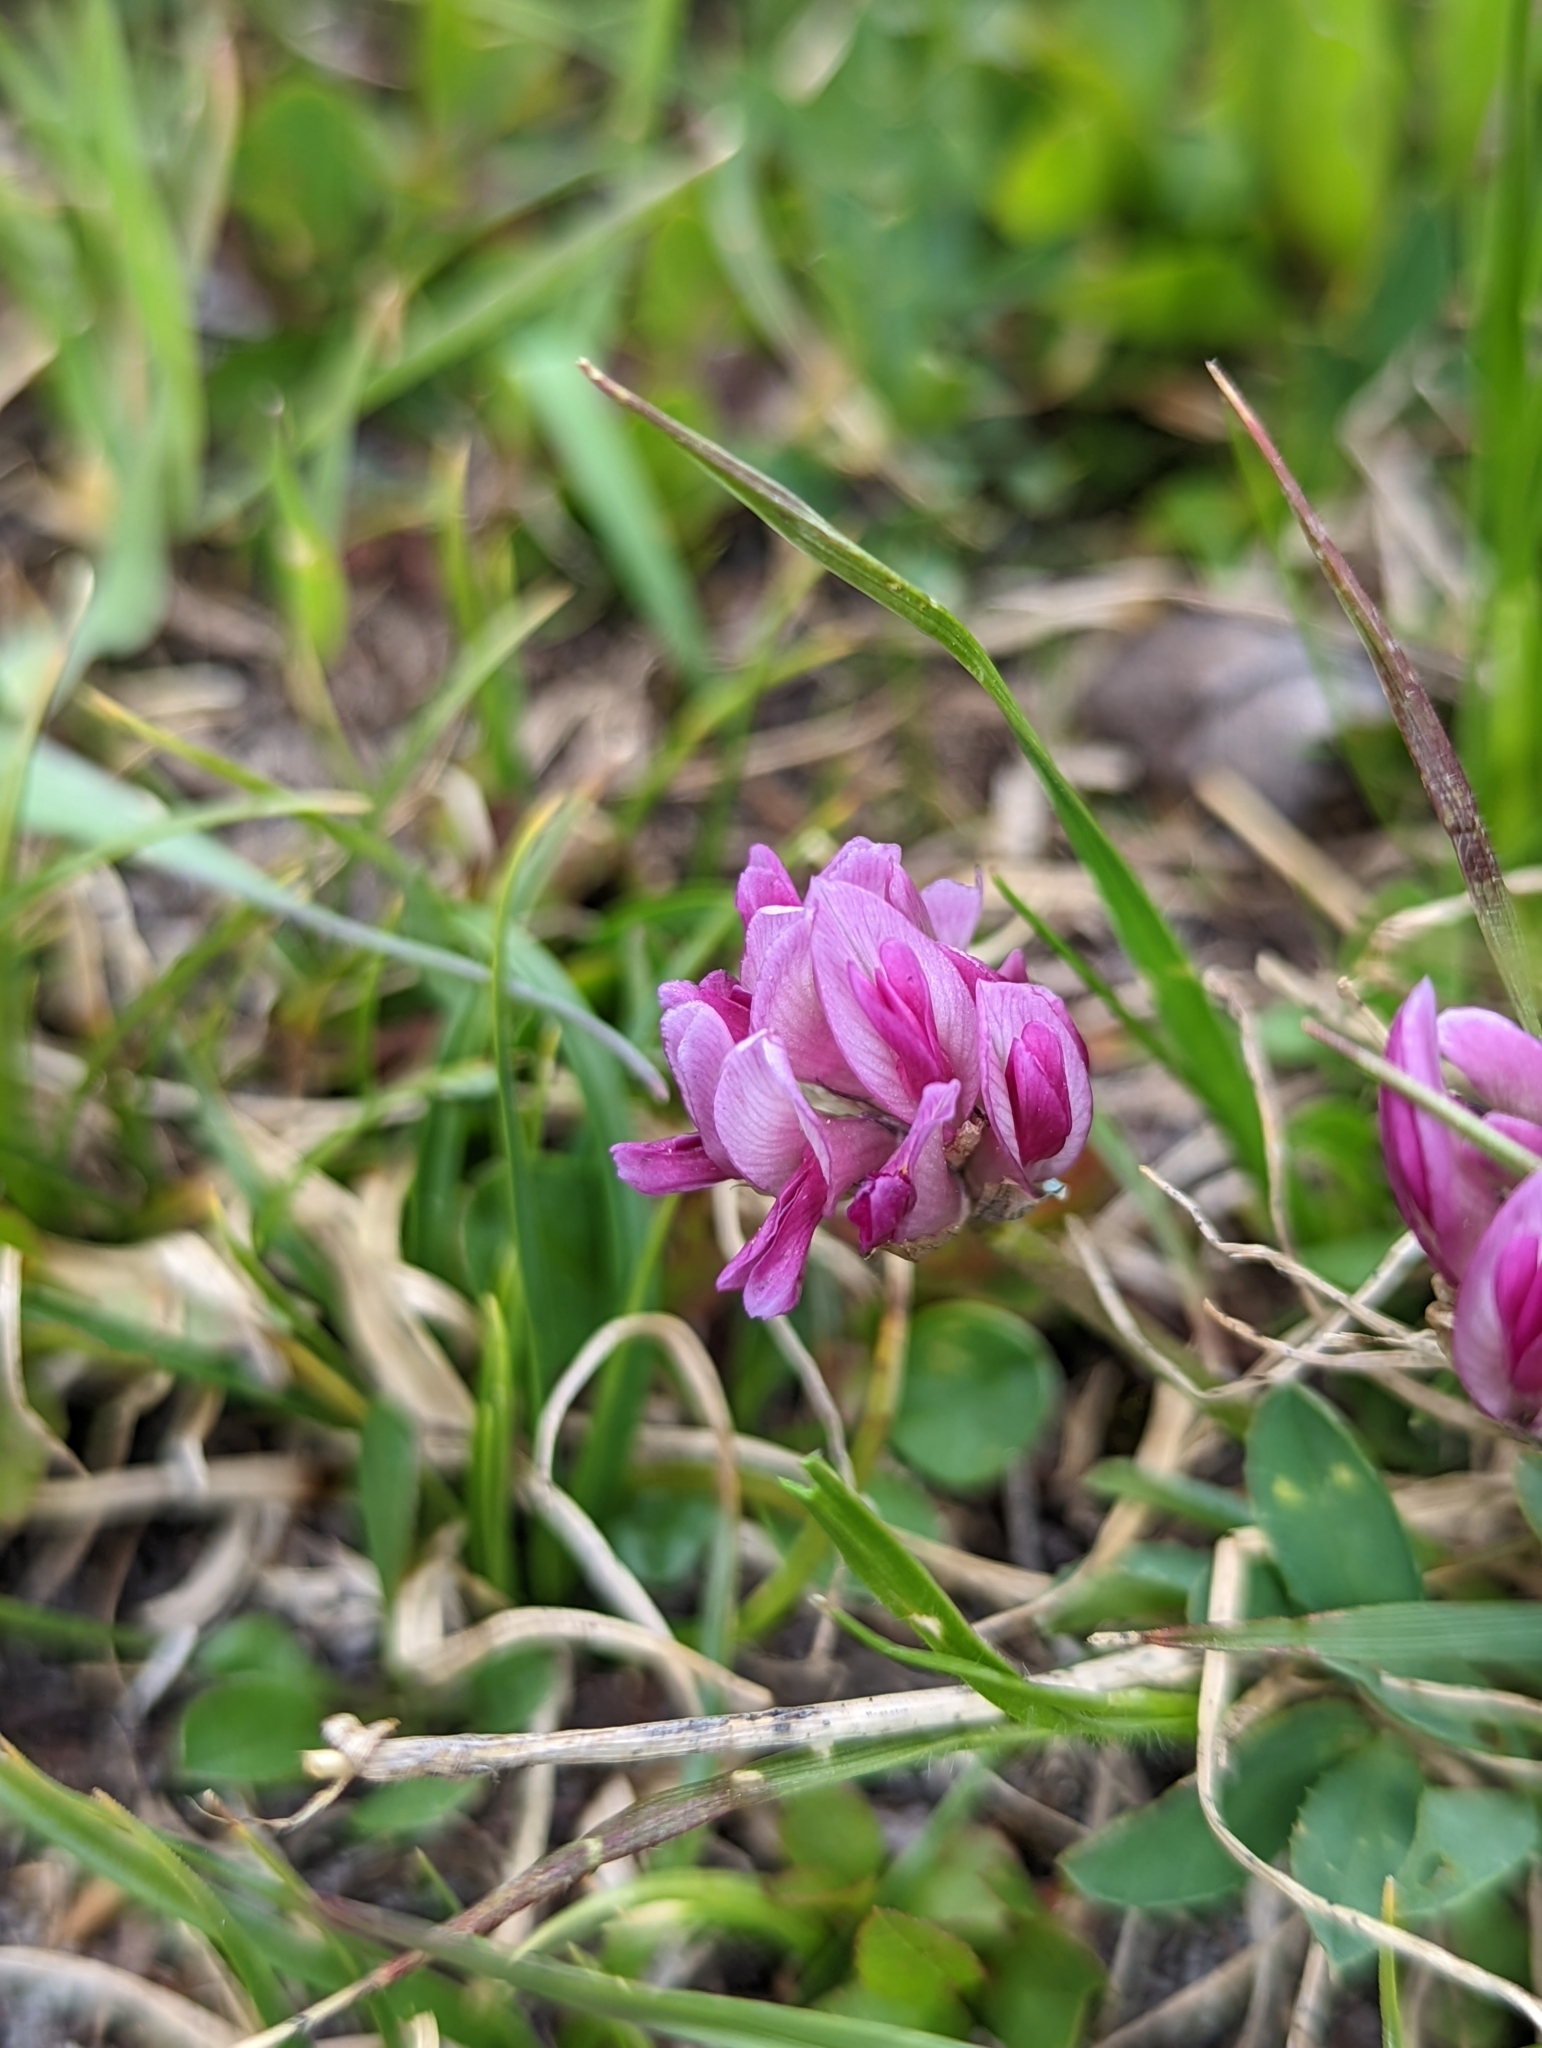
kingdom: Plantae
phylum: Tracheophyta
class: Magnoliopsida
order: Fabales
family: Fabaceae
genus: Trifolium
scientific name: Trifolium parryi
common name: Parry's clover
